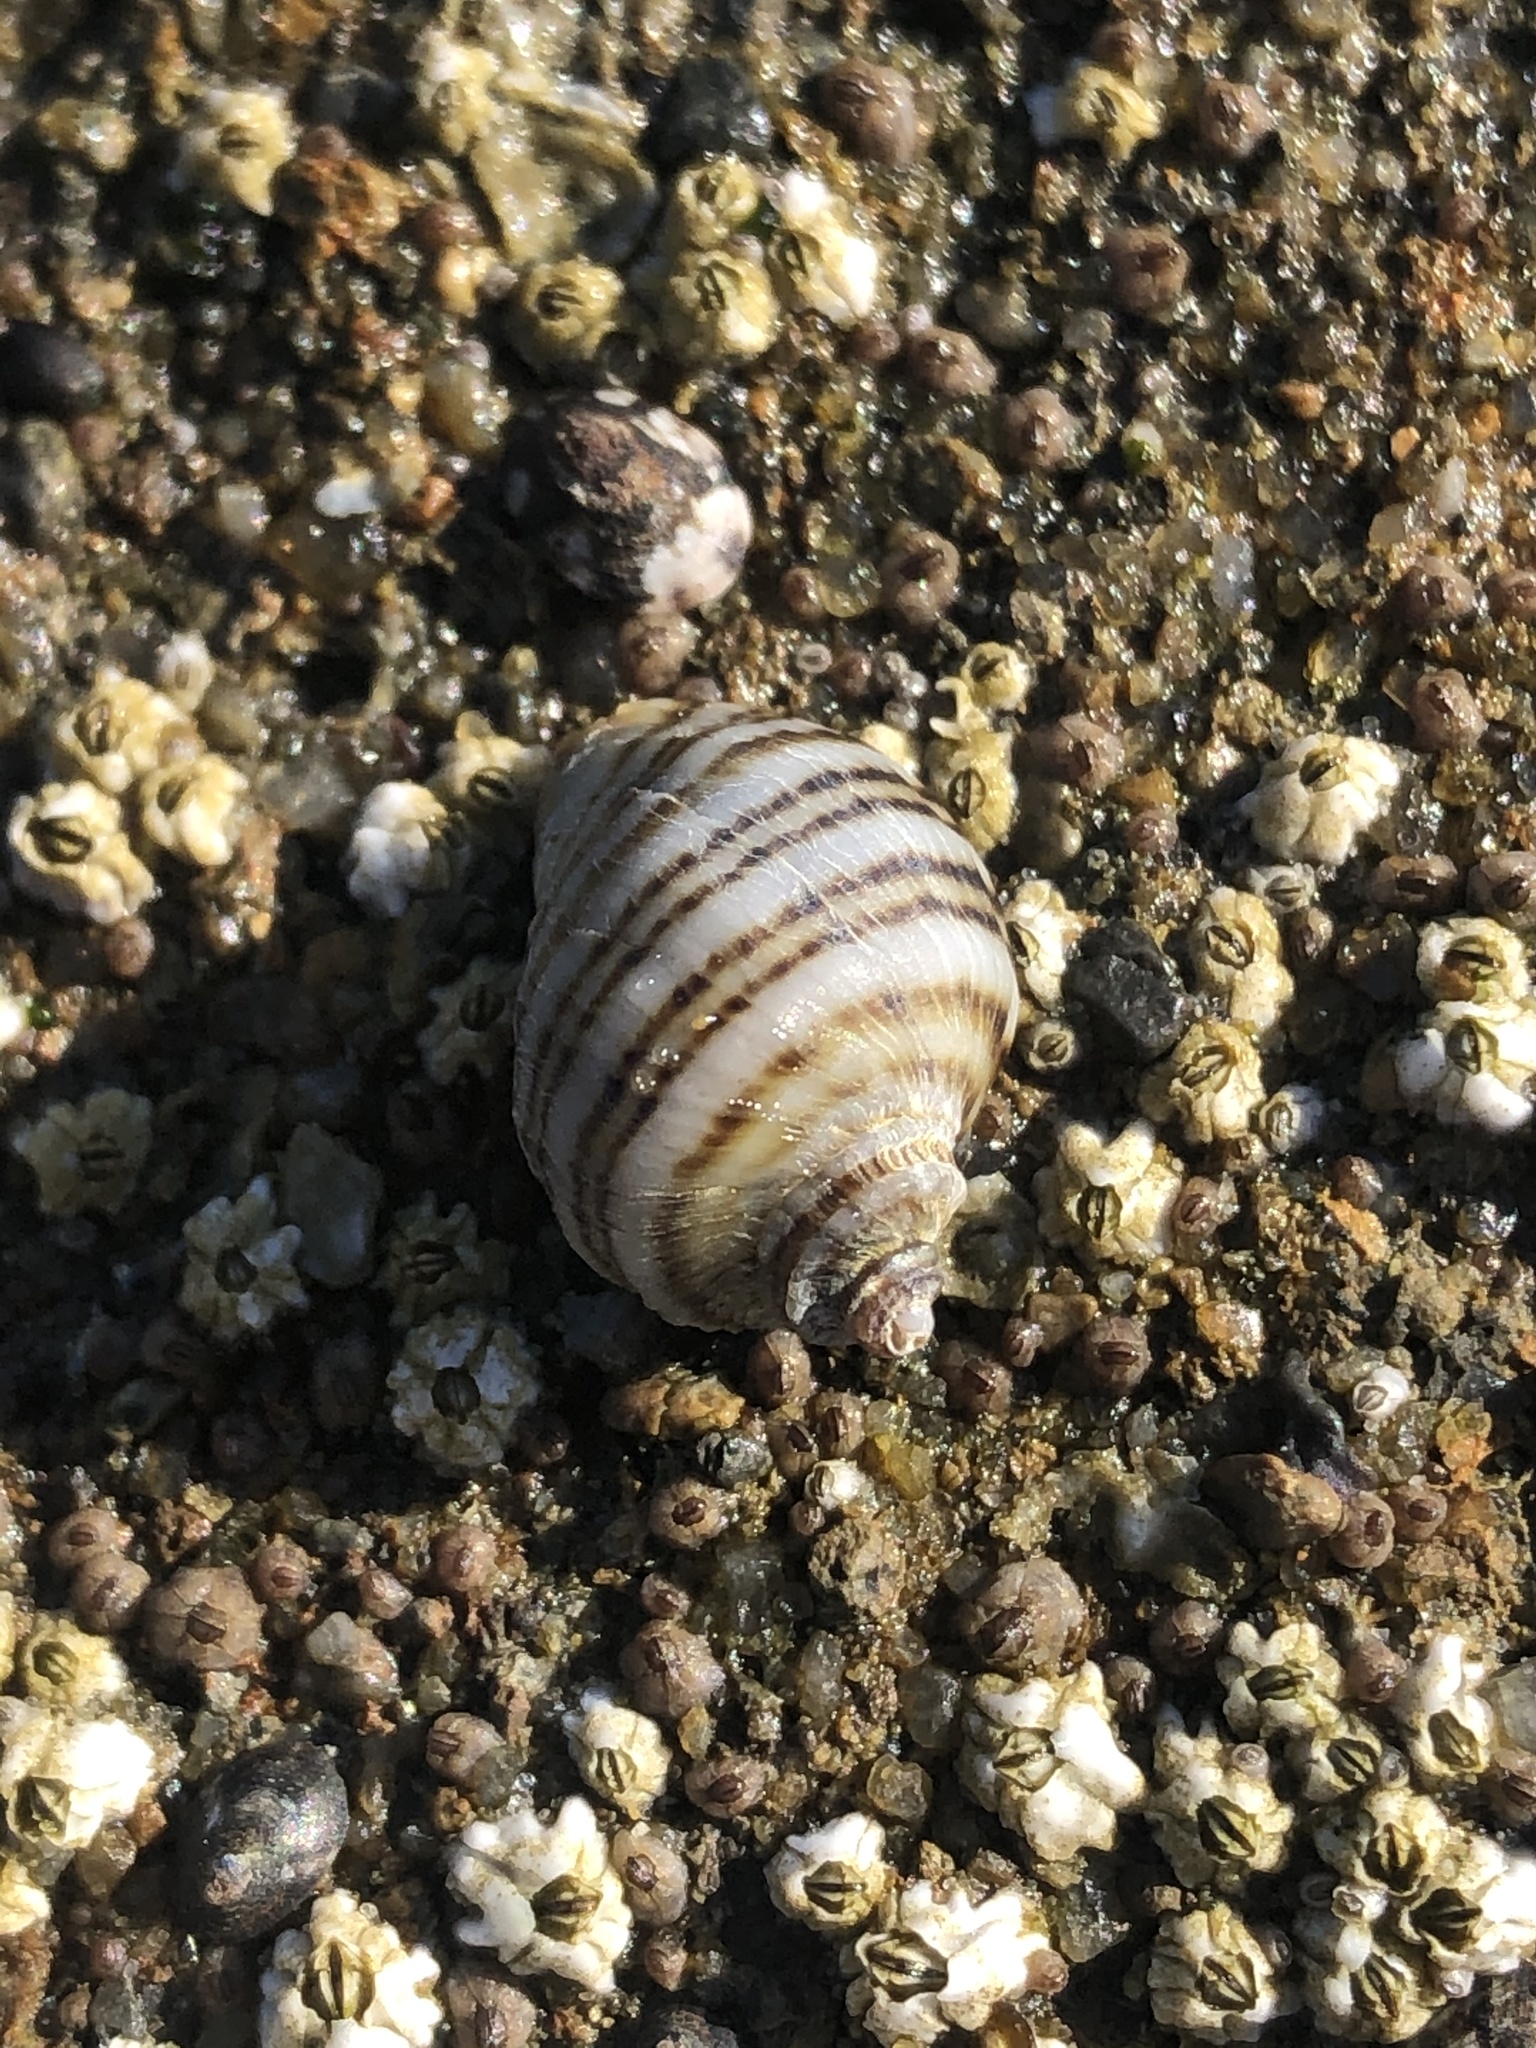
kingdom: Animalia
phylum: Mollusca
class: Gastropoda
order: Neogastropoda
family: Muricidae
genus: Nucella
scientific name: Nucella ostrina
